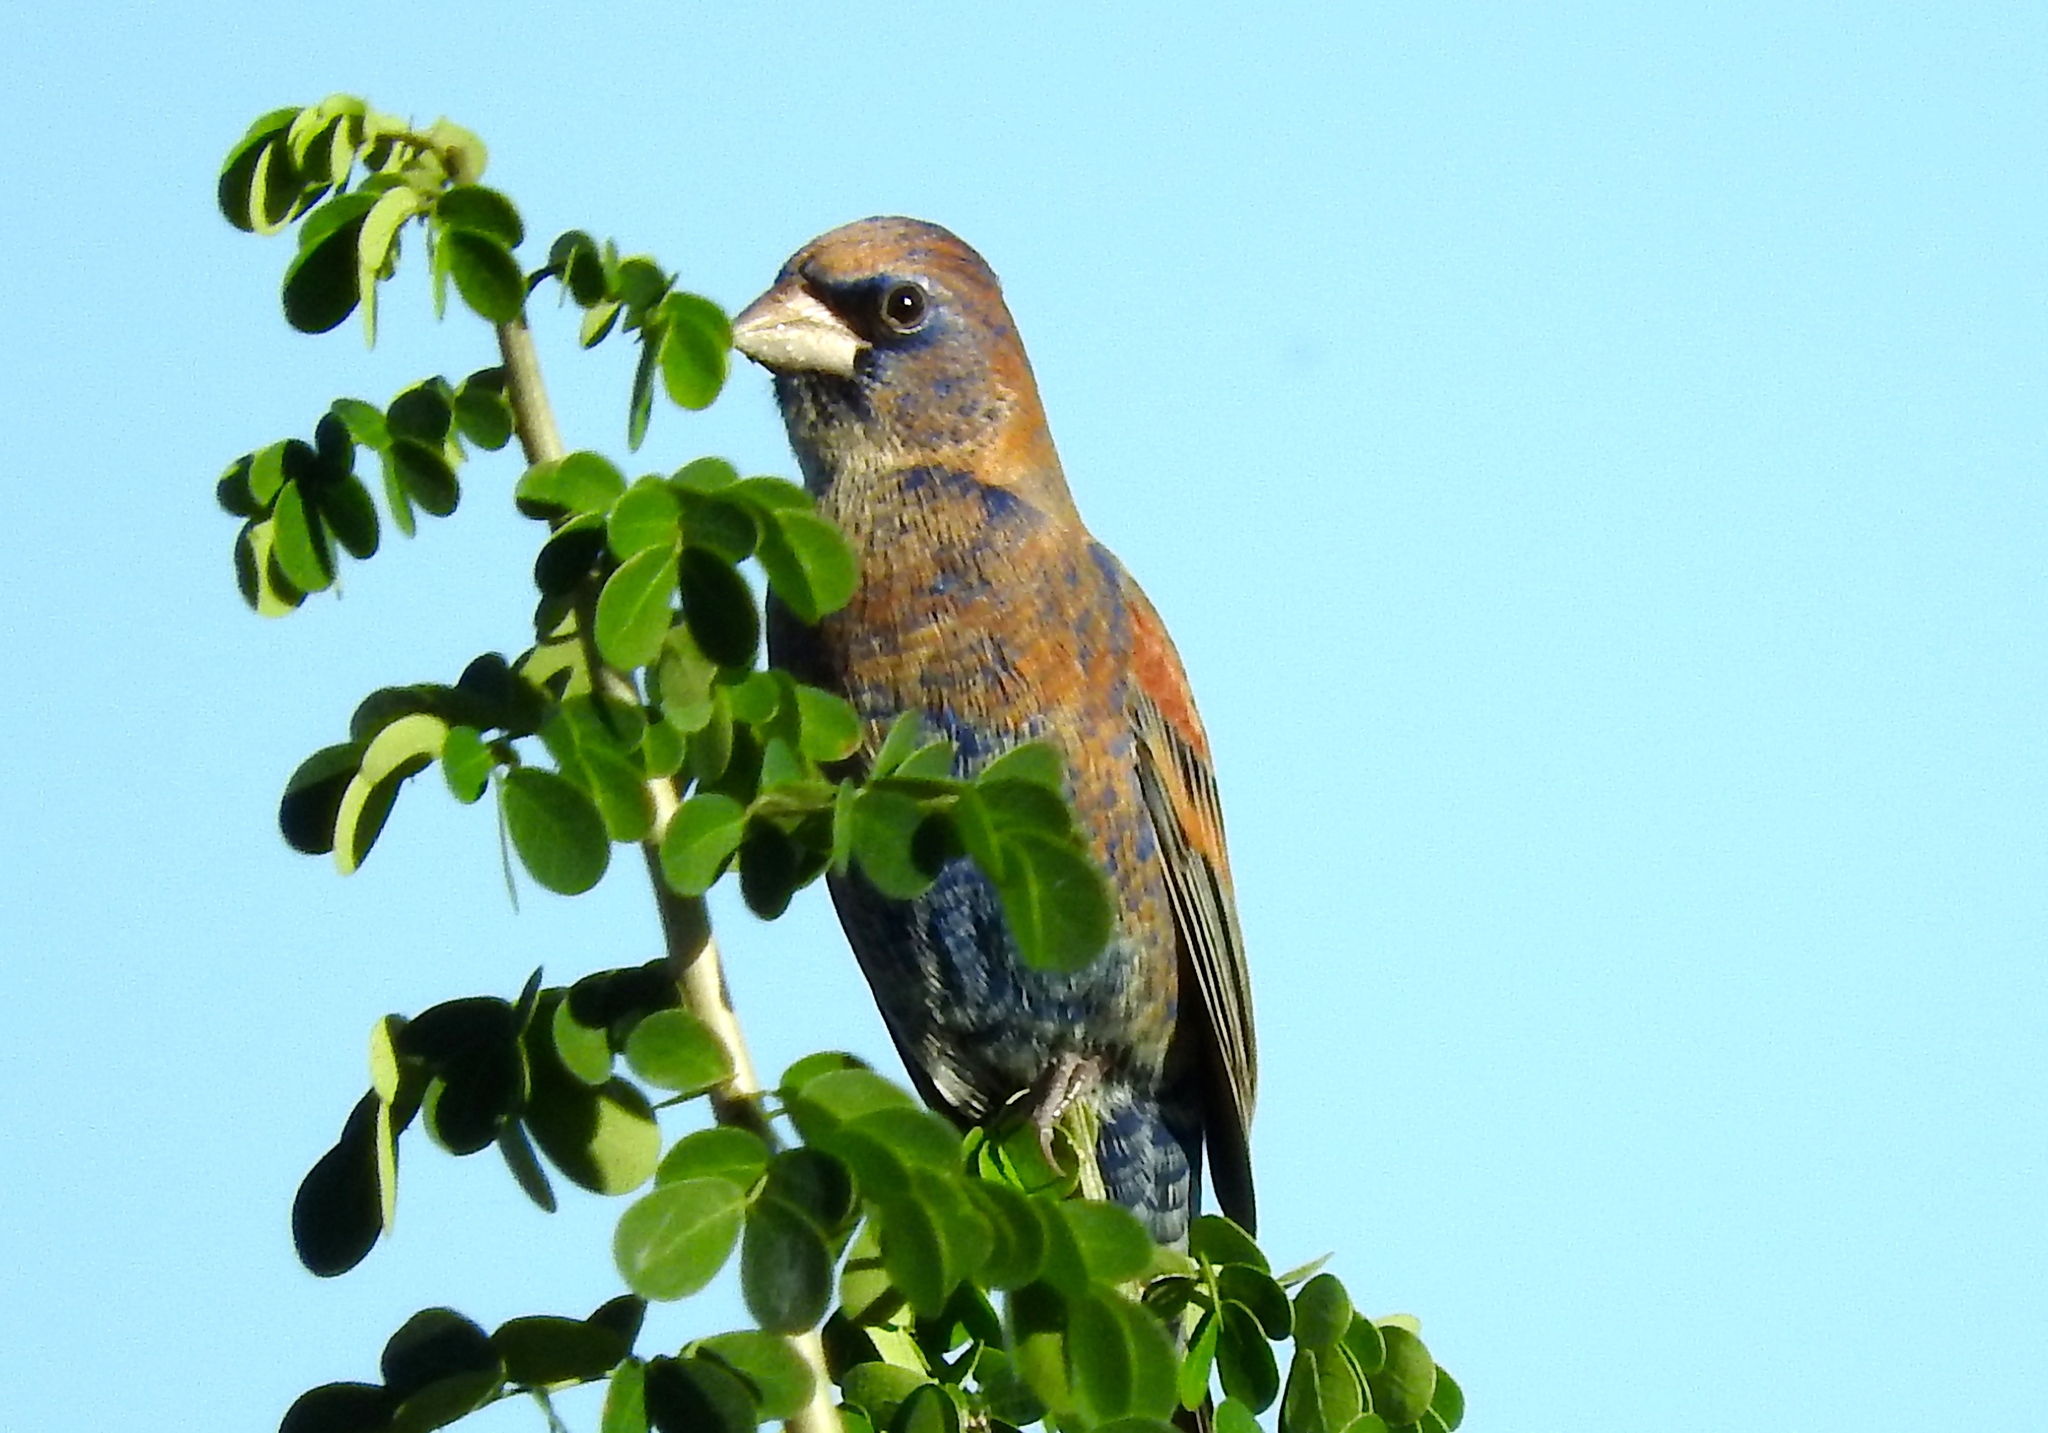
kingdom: Animalia
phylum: Chordata
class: Aves
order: Passeriformes
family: Cardinalidae
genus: Passerina
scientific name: Passerina caerulea
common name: Blue grosbeak
